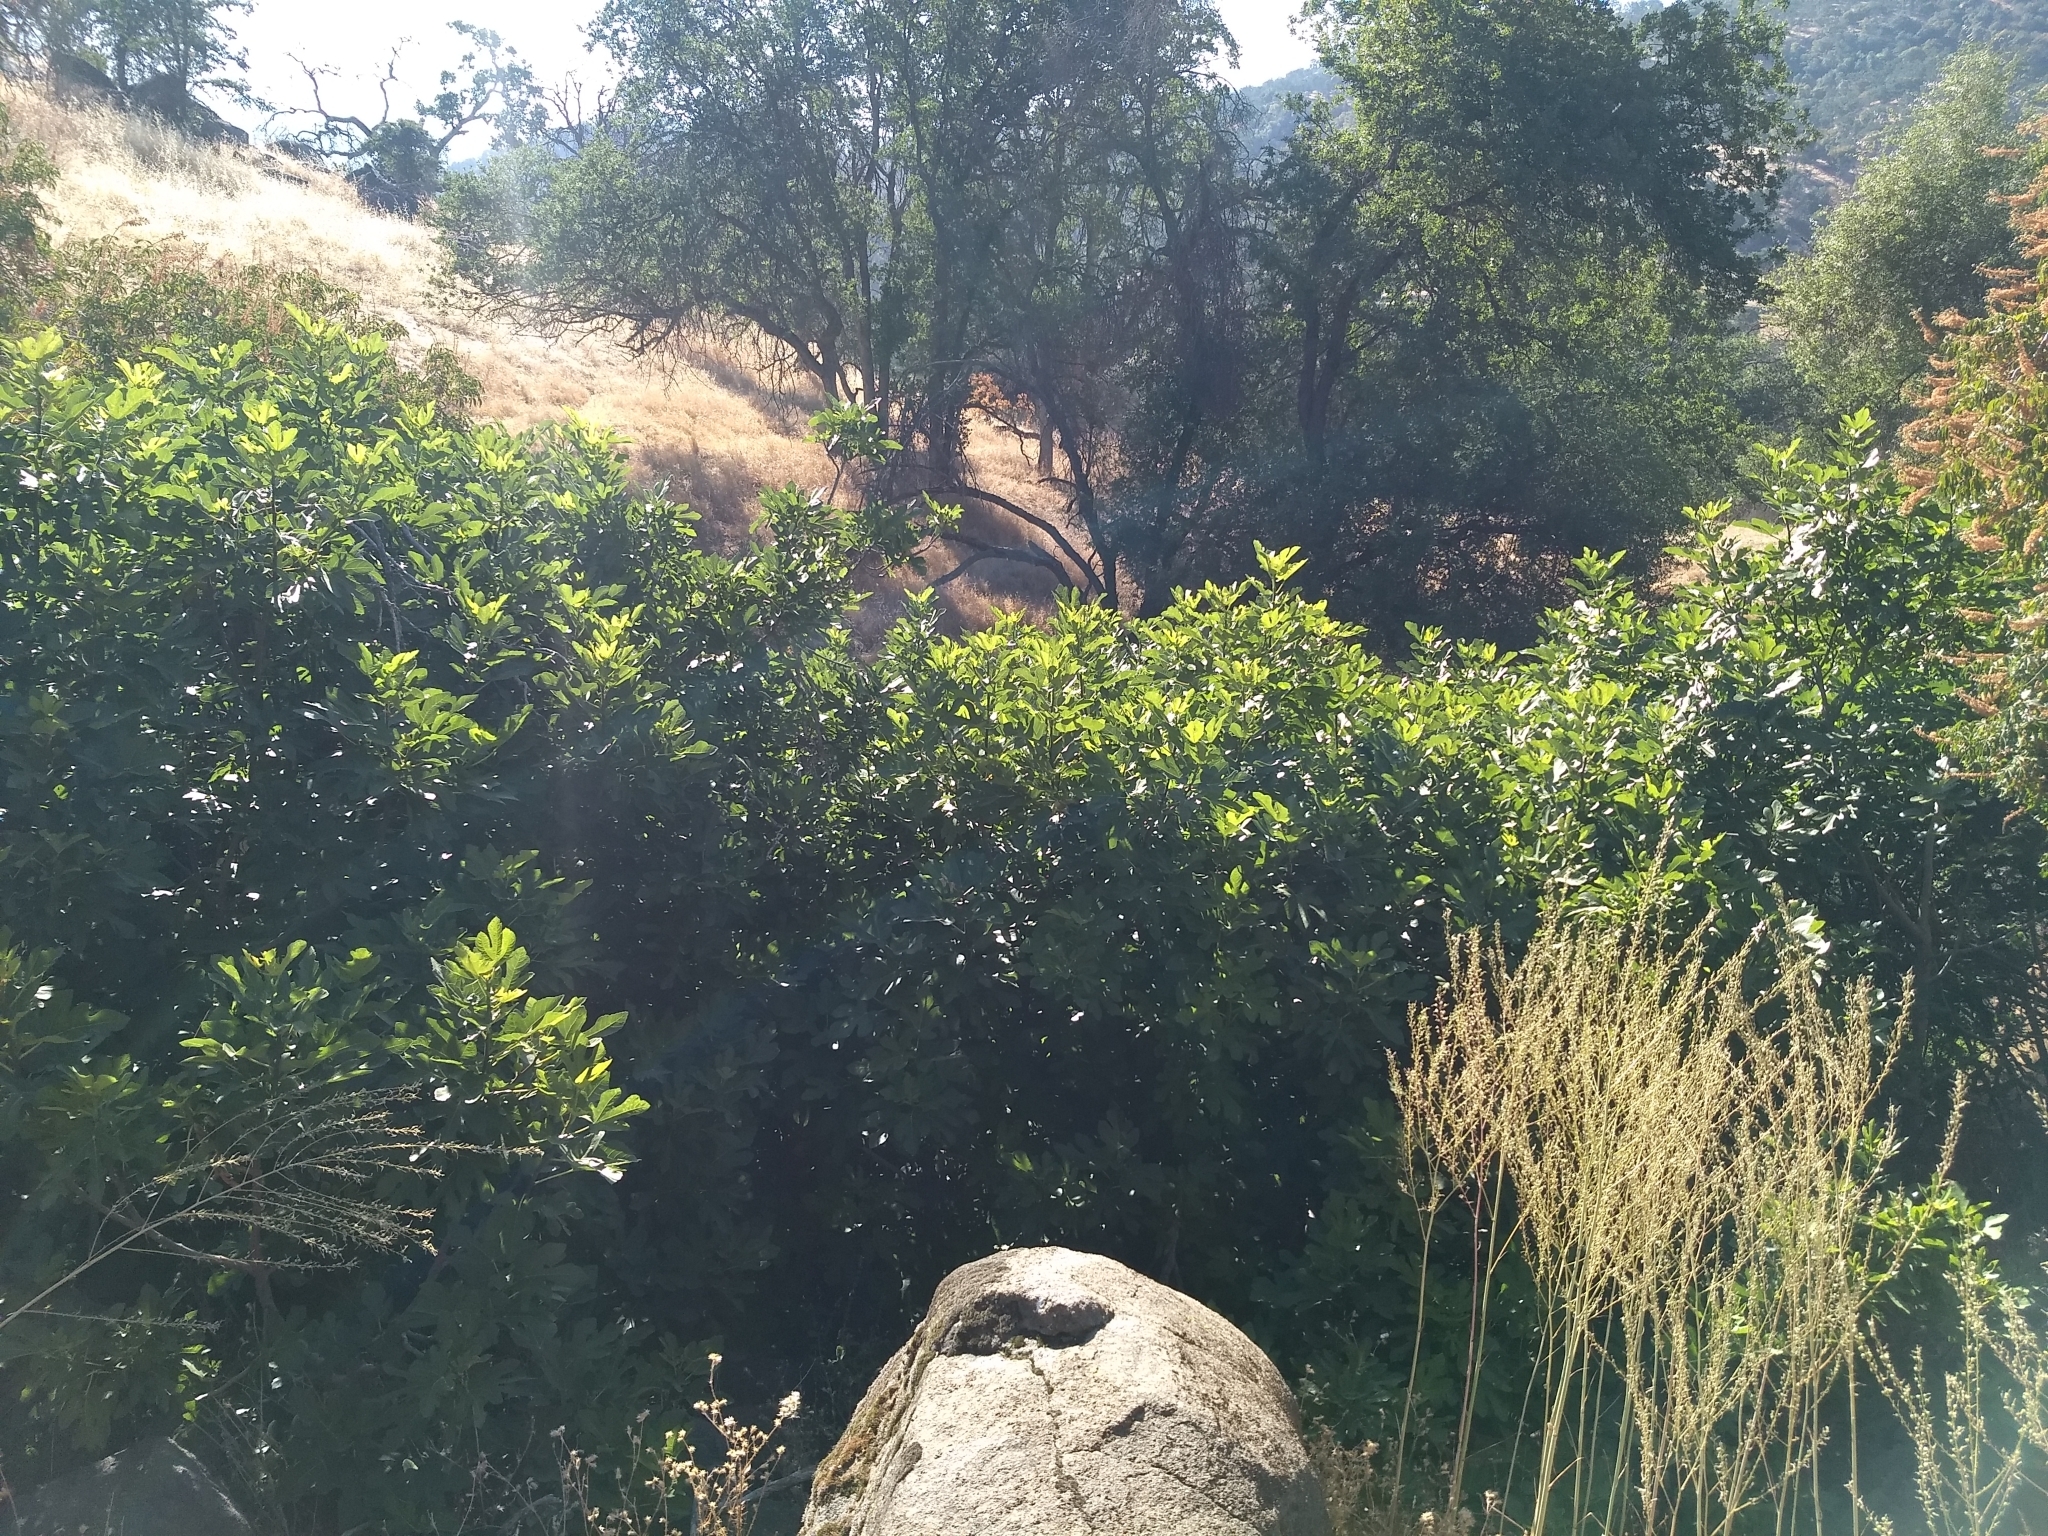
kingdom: Plantae
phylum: Tracheophyta
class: Magnoliopsida
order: Rosales
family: Moraceae
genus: Ficus
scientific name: Ficus carica
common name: Fig
